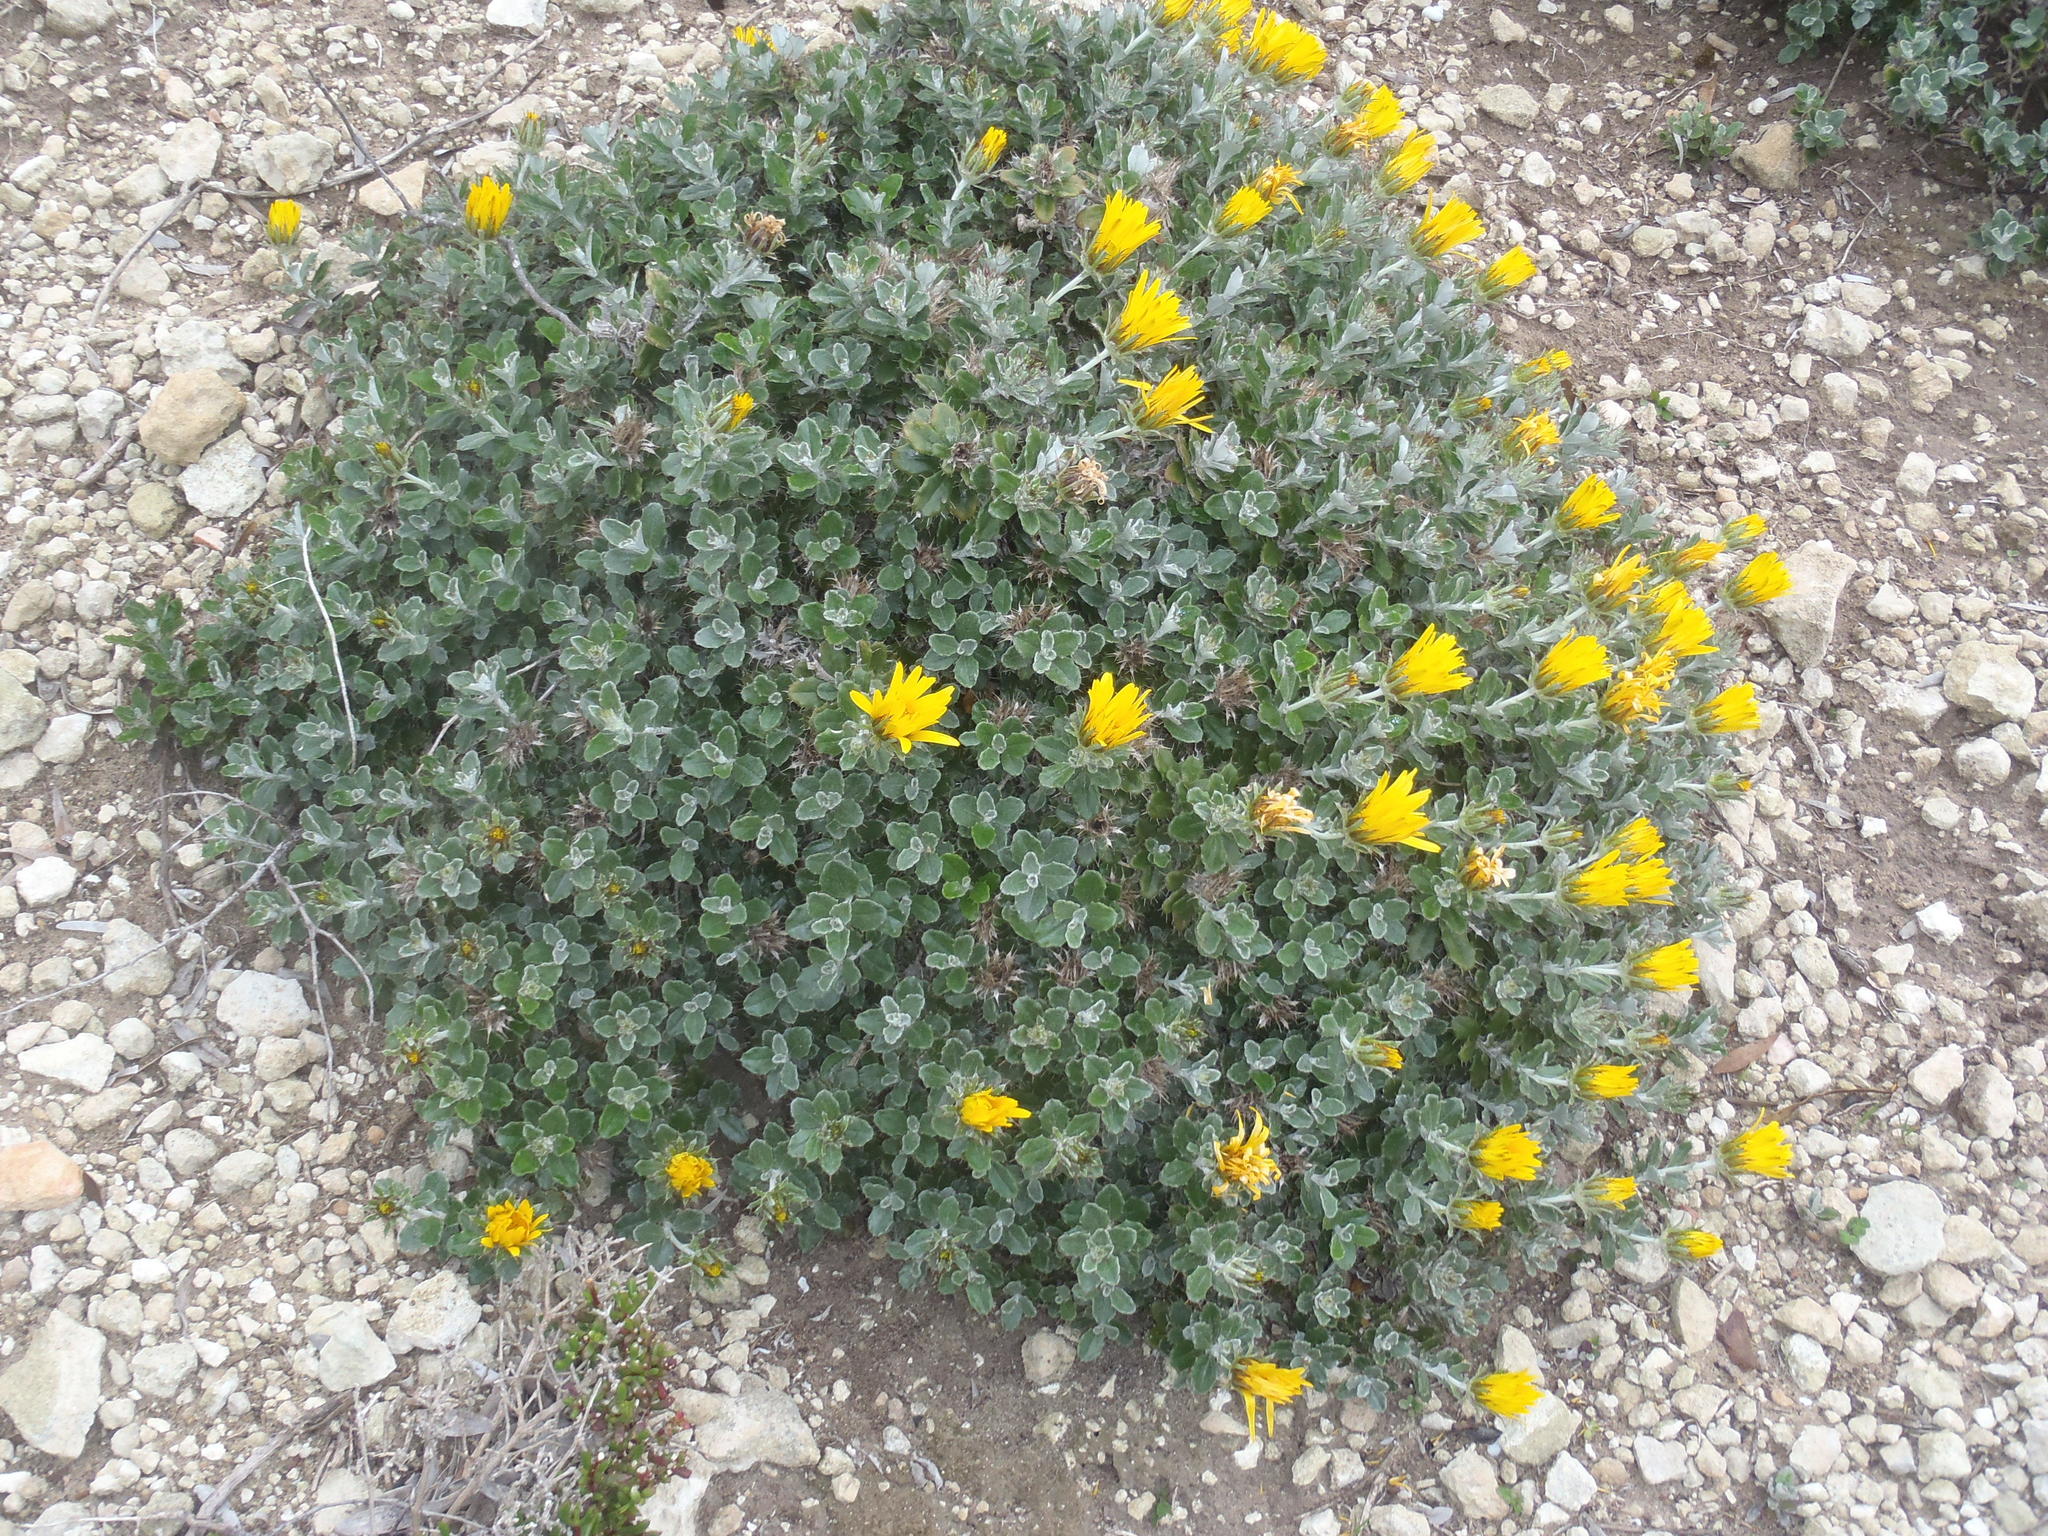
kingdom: Plantae
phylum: Tracheophyta
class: Magnoliopsida
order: Asterales
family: Asteraceae
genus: Berkheya
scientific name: Berkheya coriacea
